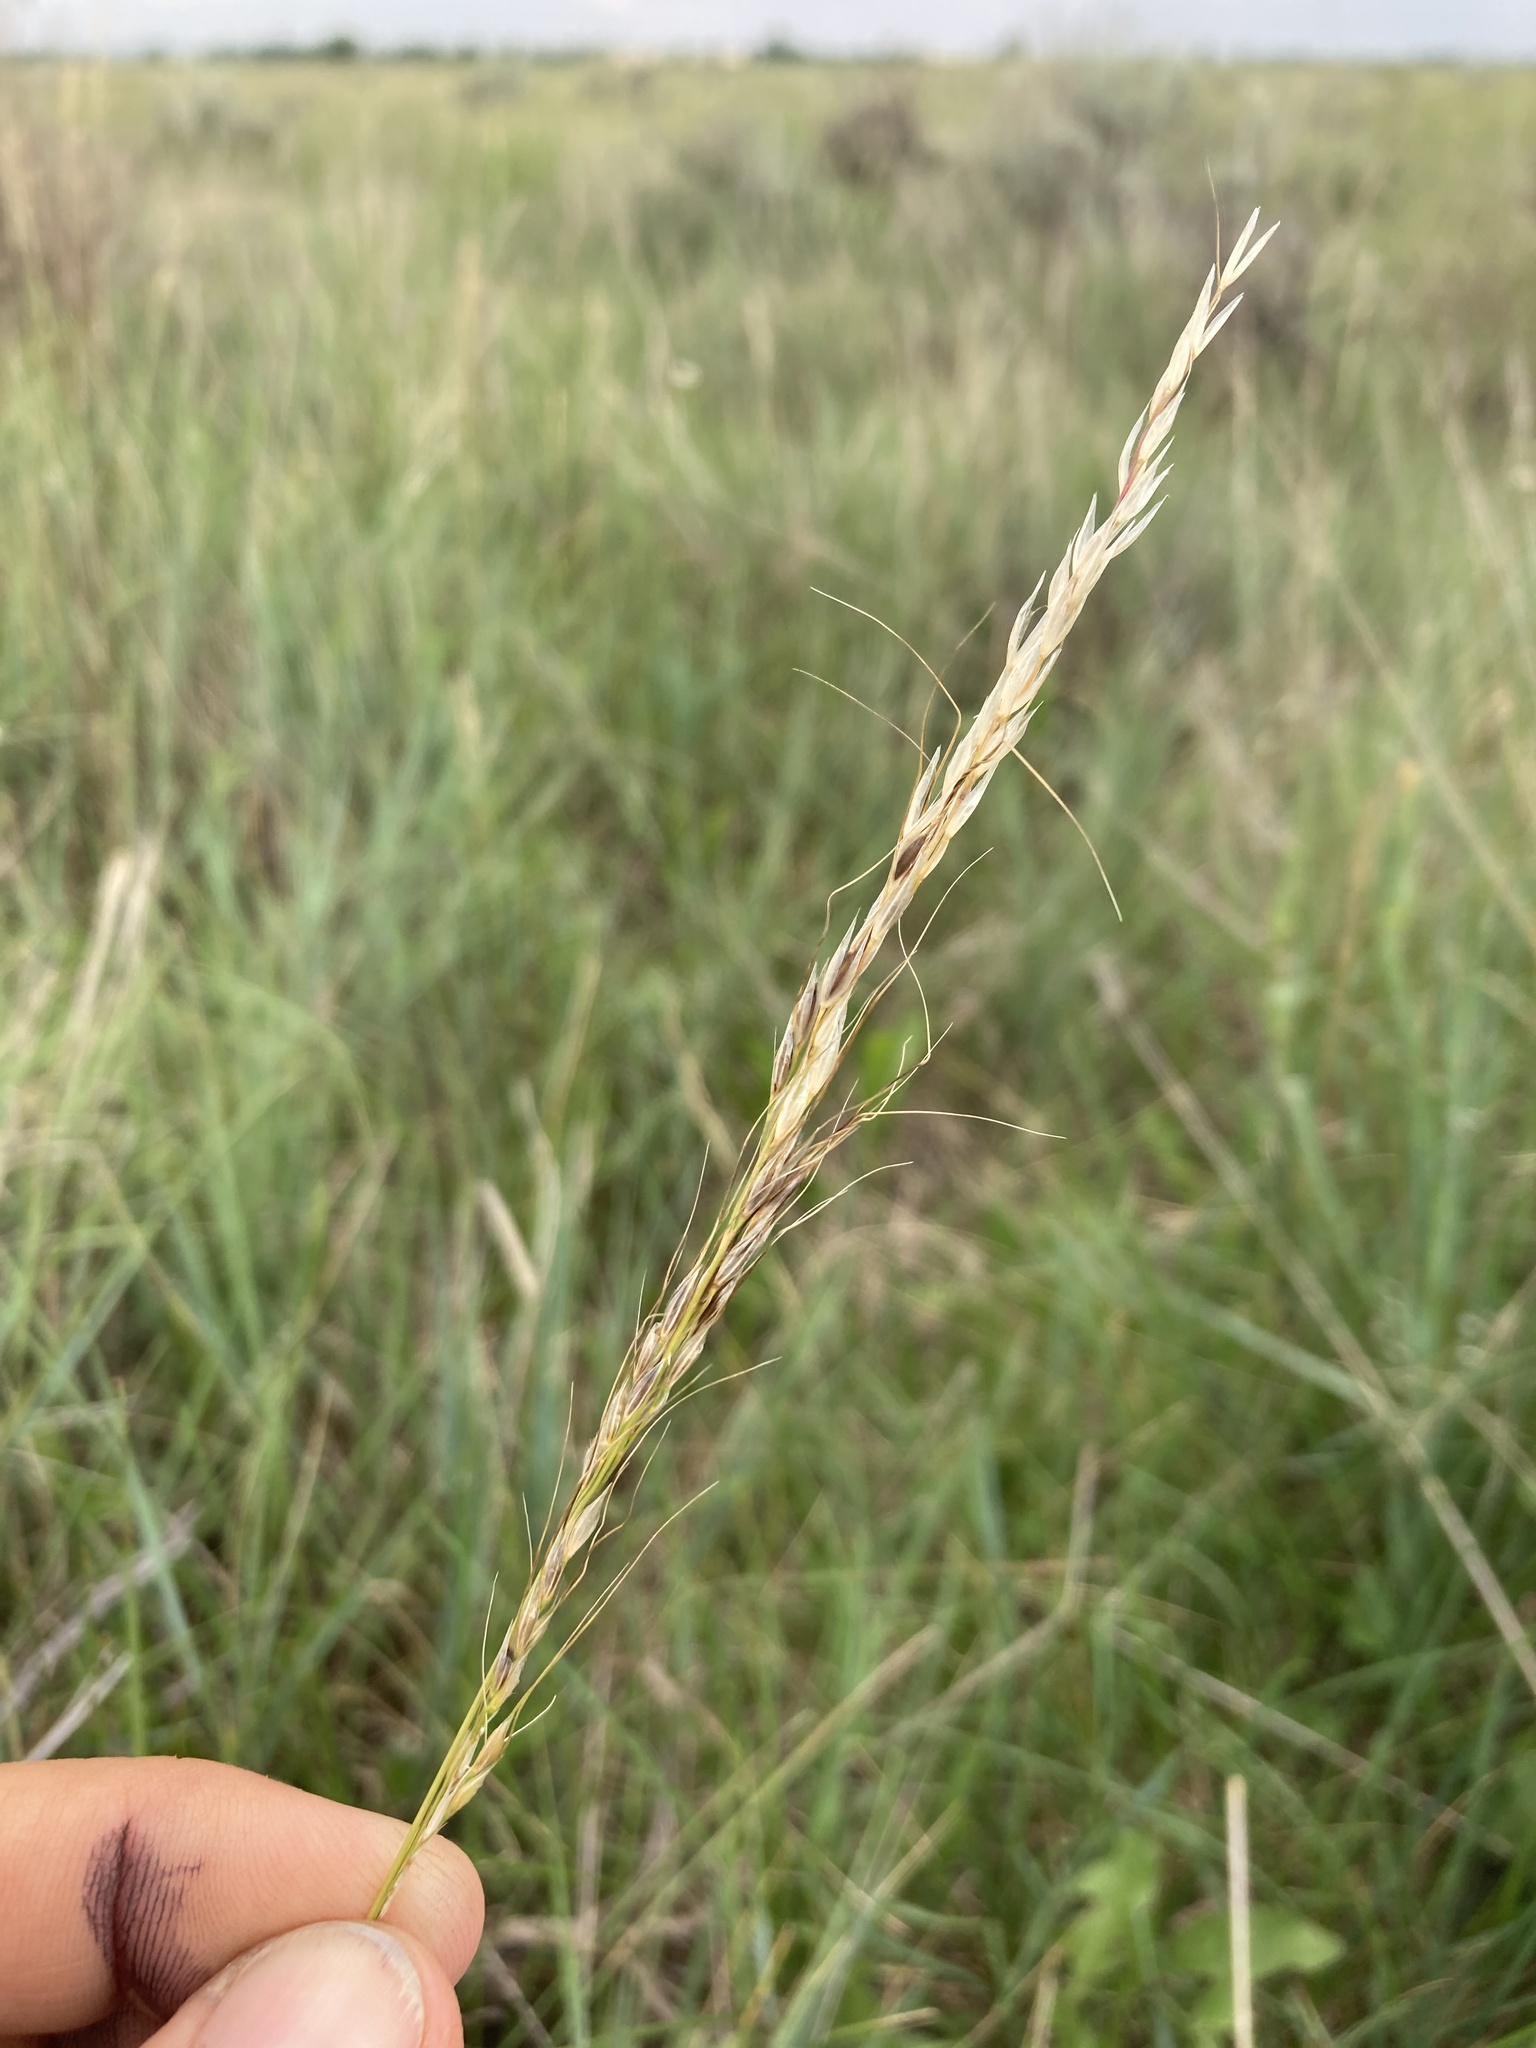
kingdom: Plantae
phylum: Tracheophyta
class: Liliopsida
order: Poales
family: Poaceae
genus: Nassella
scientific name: Nassella viridula
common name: Green needlegrass
